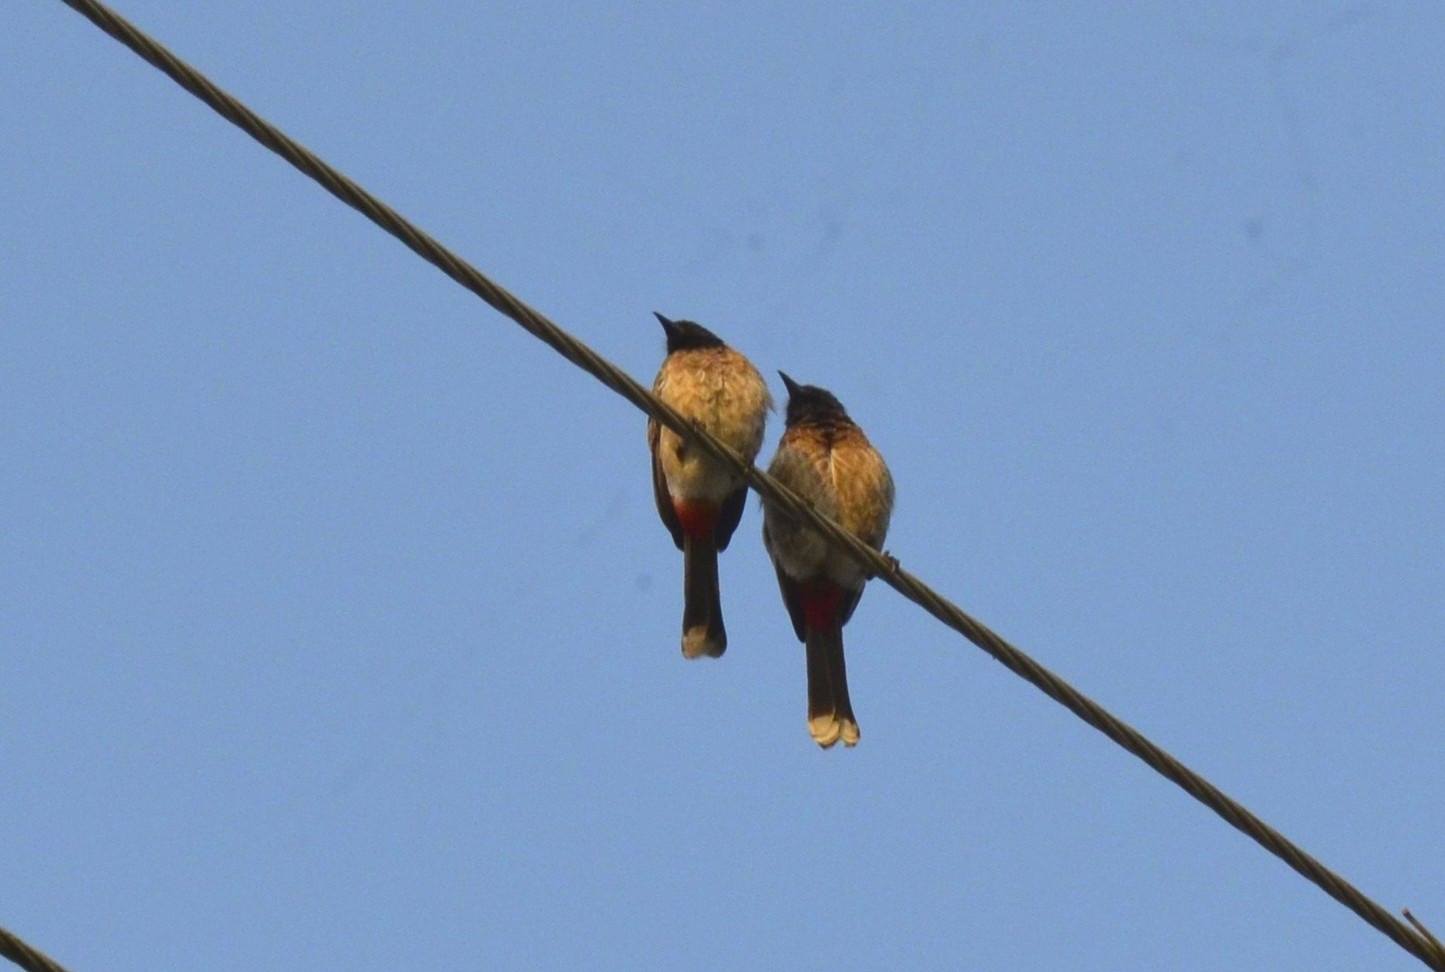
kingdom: Animalia
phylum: Chordata
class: Aves
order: Passeriformes
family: Pycnonotidae
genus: Pycnonotus
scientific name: Pycnonotus cafer
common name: Red-vented bulbul
